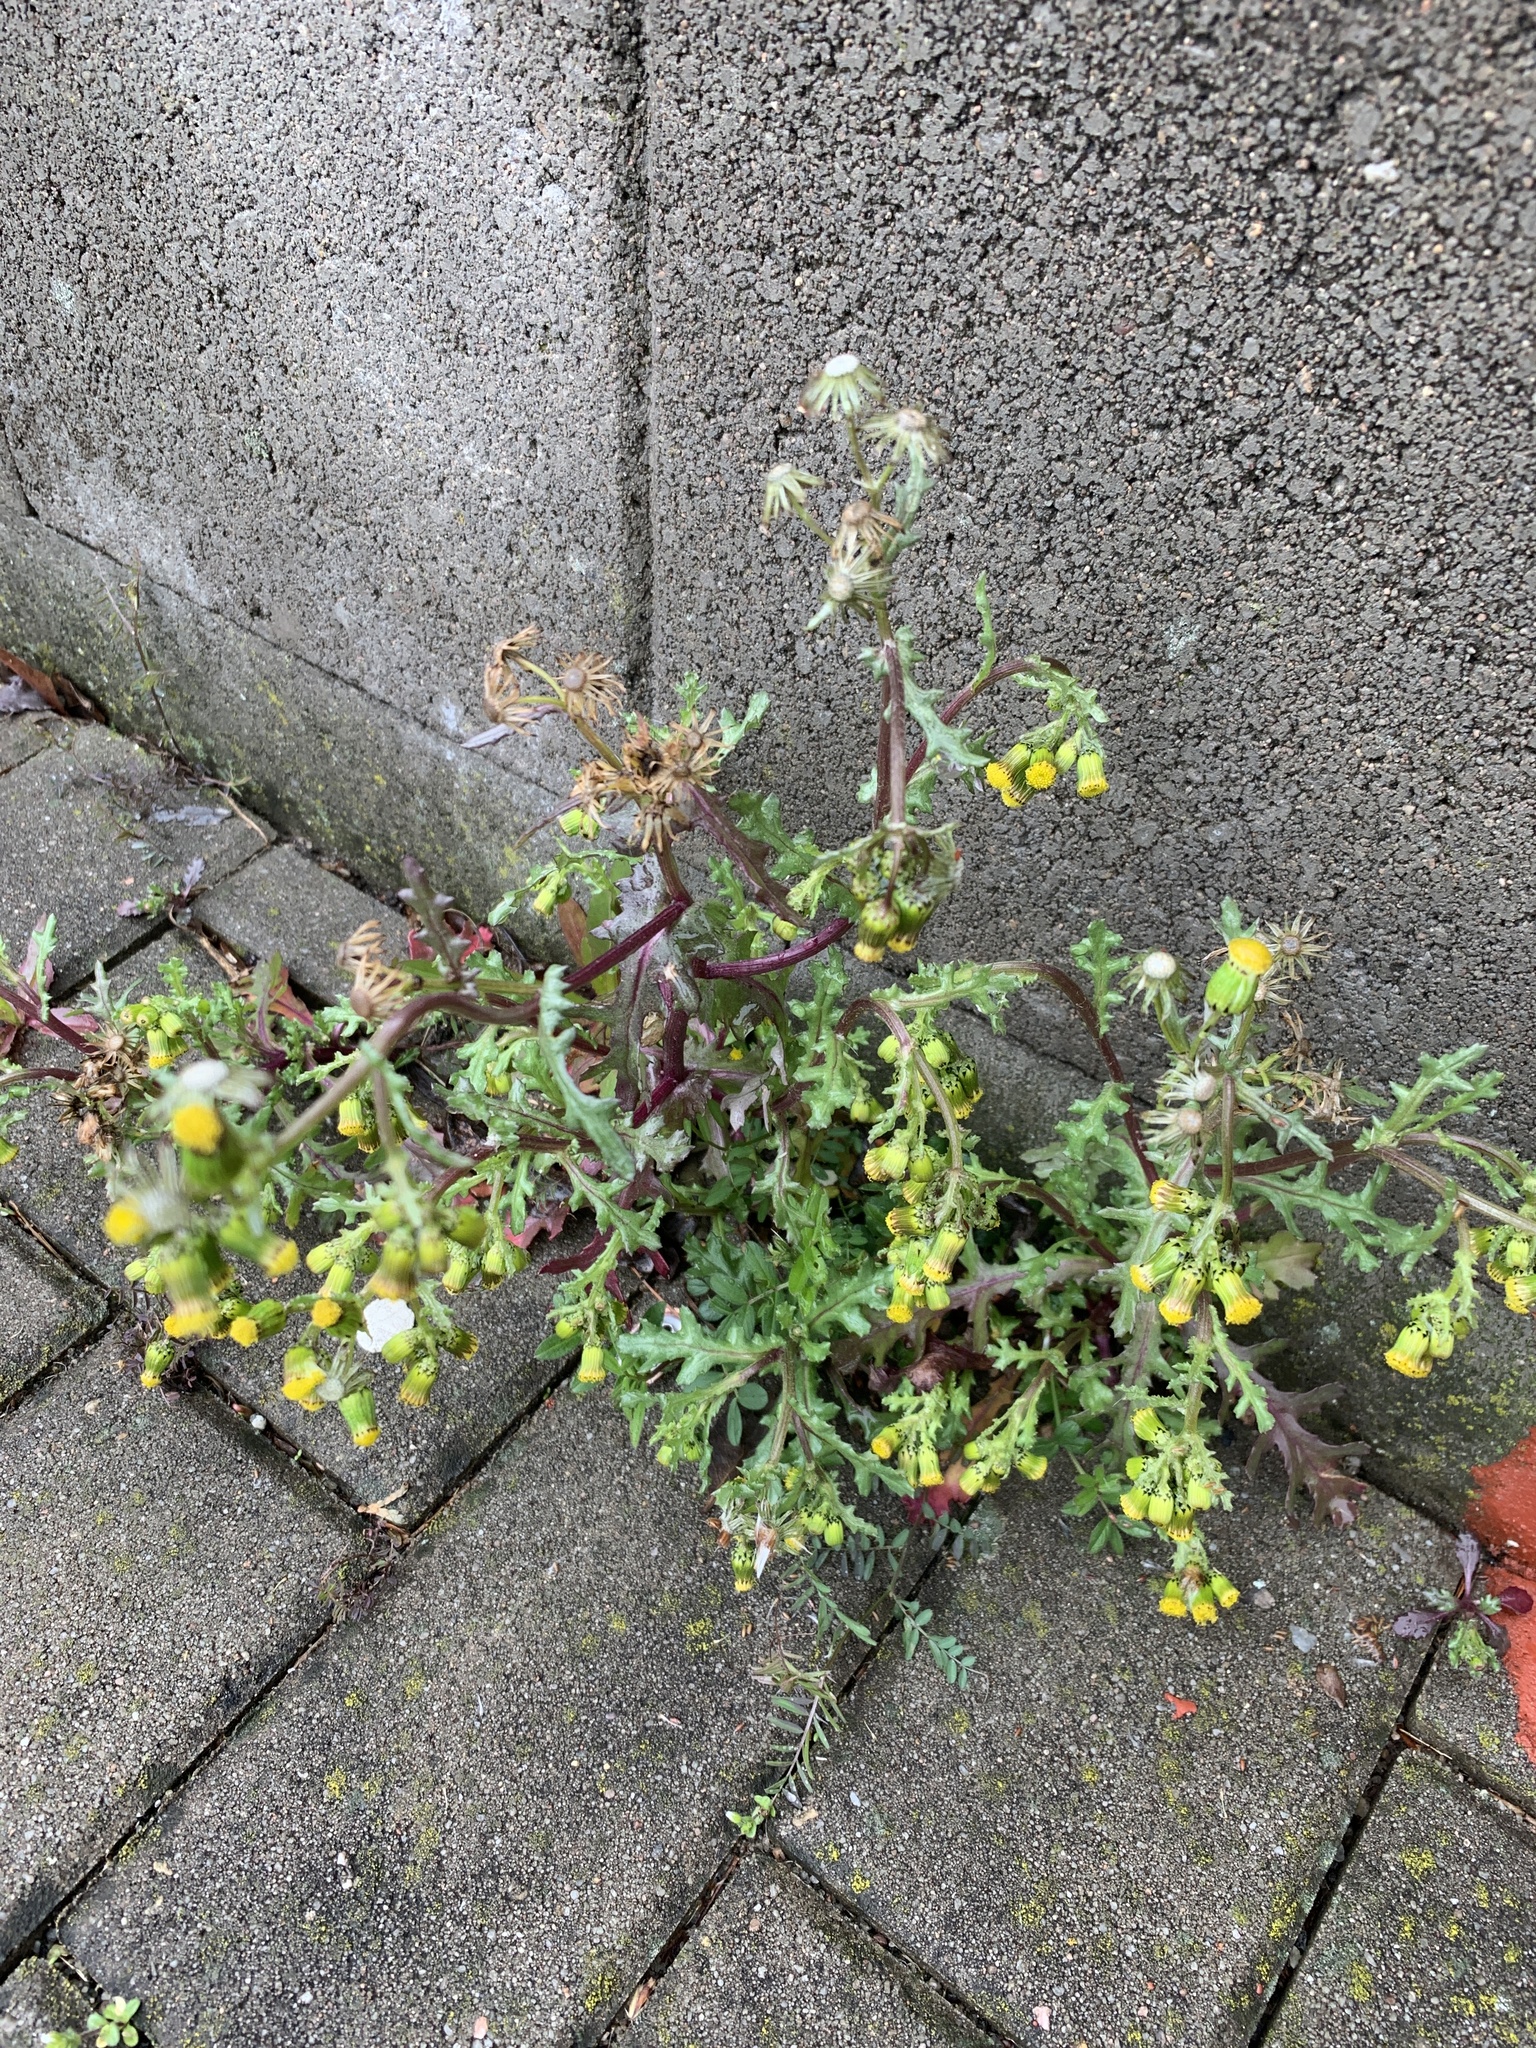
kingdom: Plantae
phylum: Tracheophyta
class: Magnoliopsida
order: Asterales
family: Asteraceae
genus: Senecio
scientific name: Senecio vulgaris
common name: Old-man-in-the-spring
